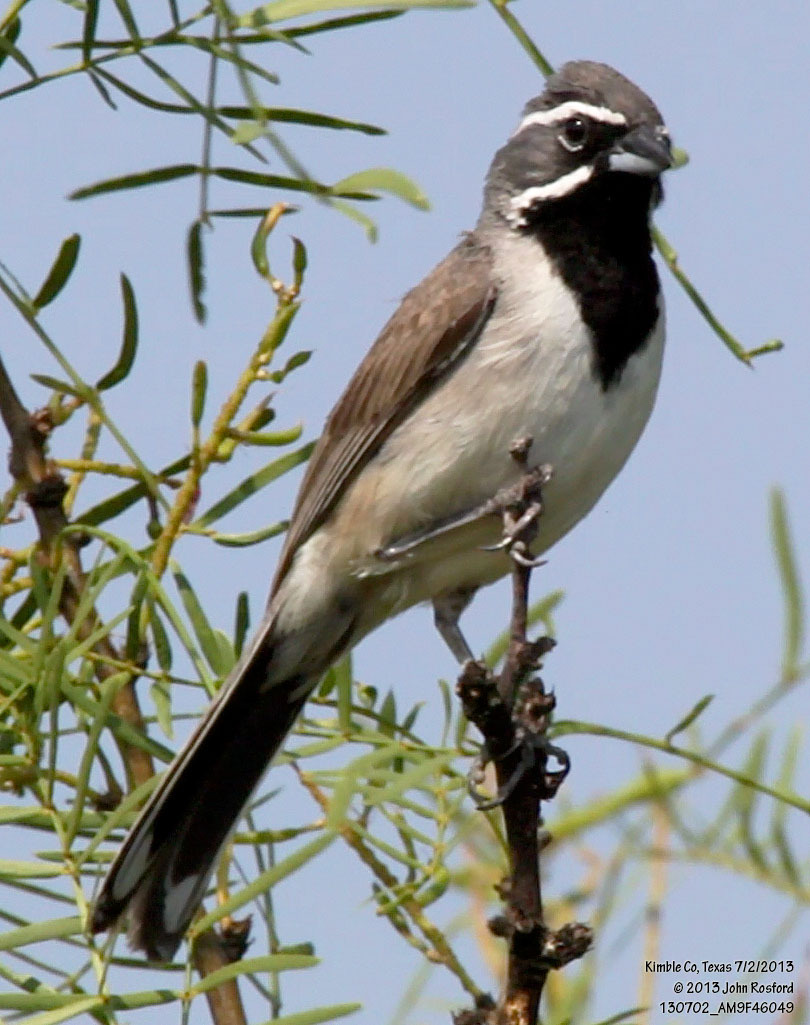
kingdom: Animalia
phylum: Chordata
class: Aves
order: Passeriformes
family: Passerellidae
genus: Amphispiza
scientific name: Amphispiza bilineata
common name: Black-throated sparrow
